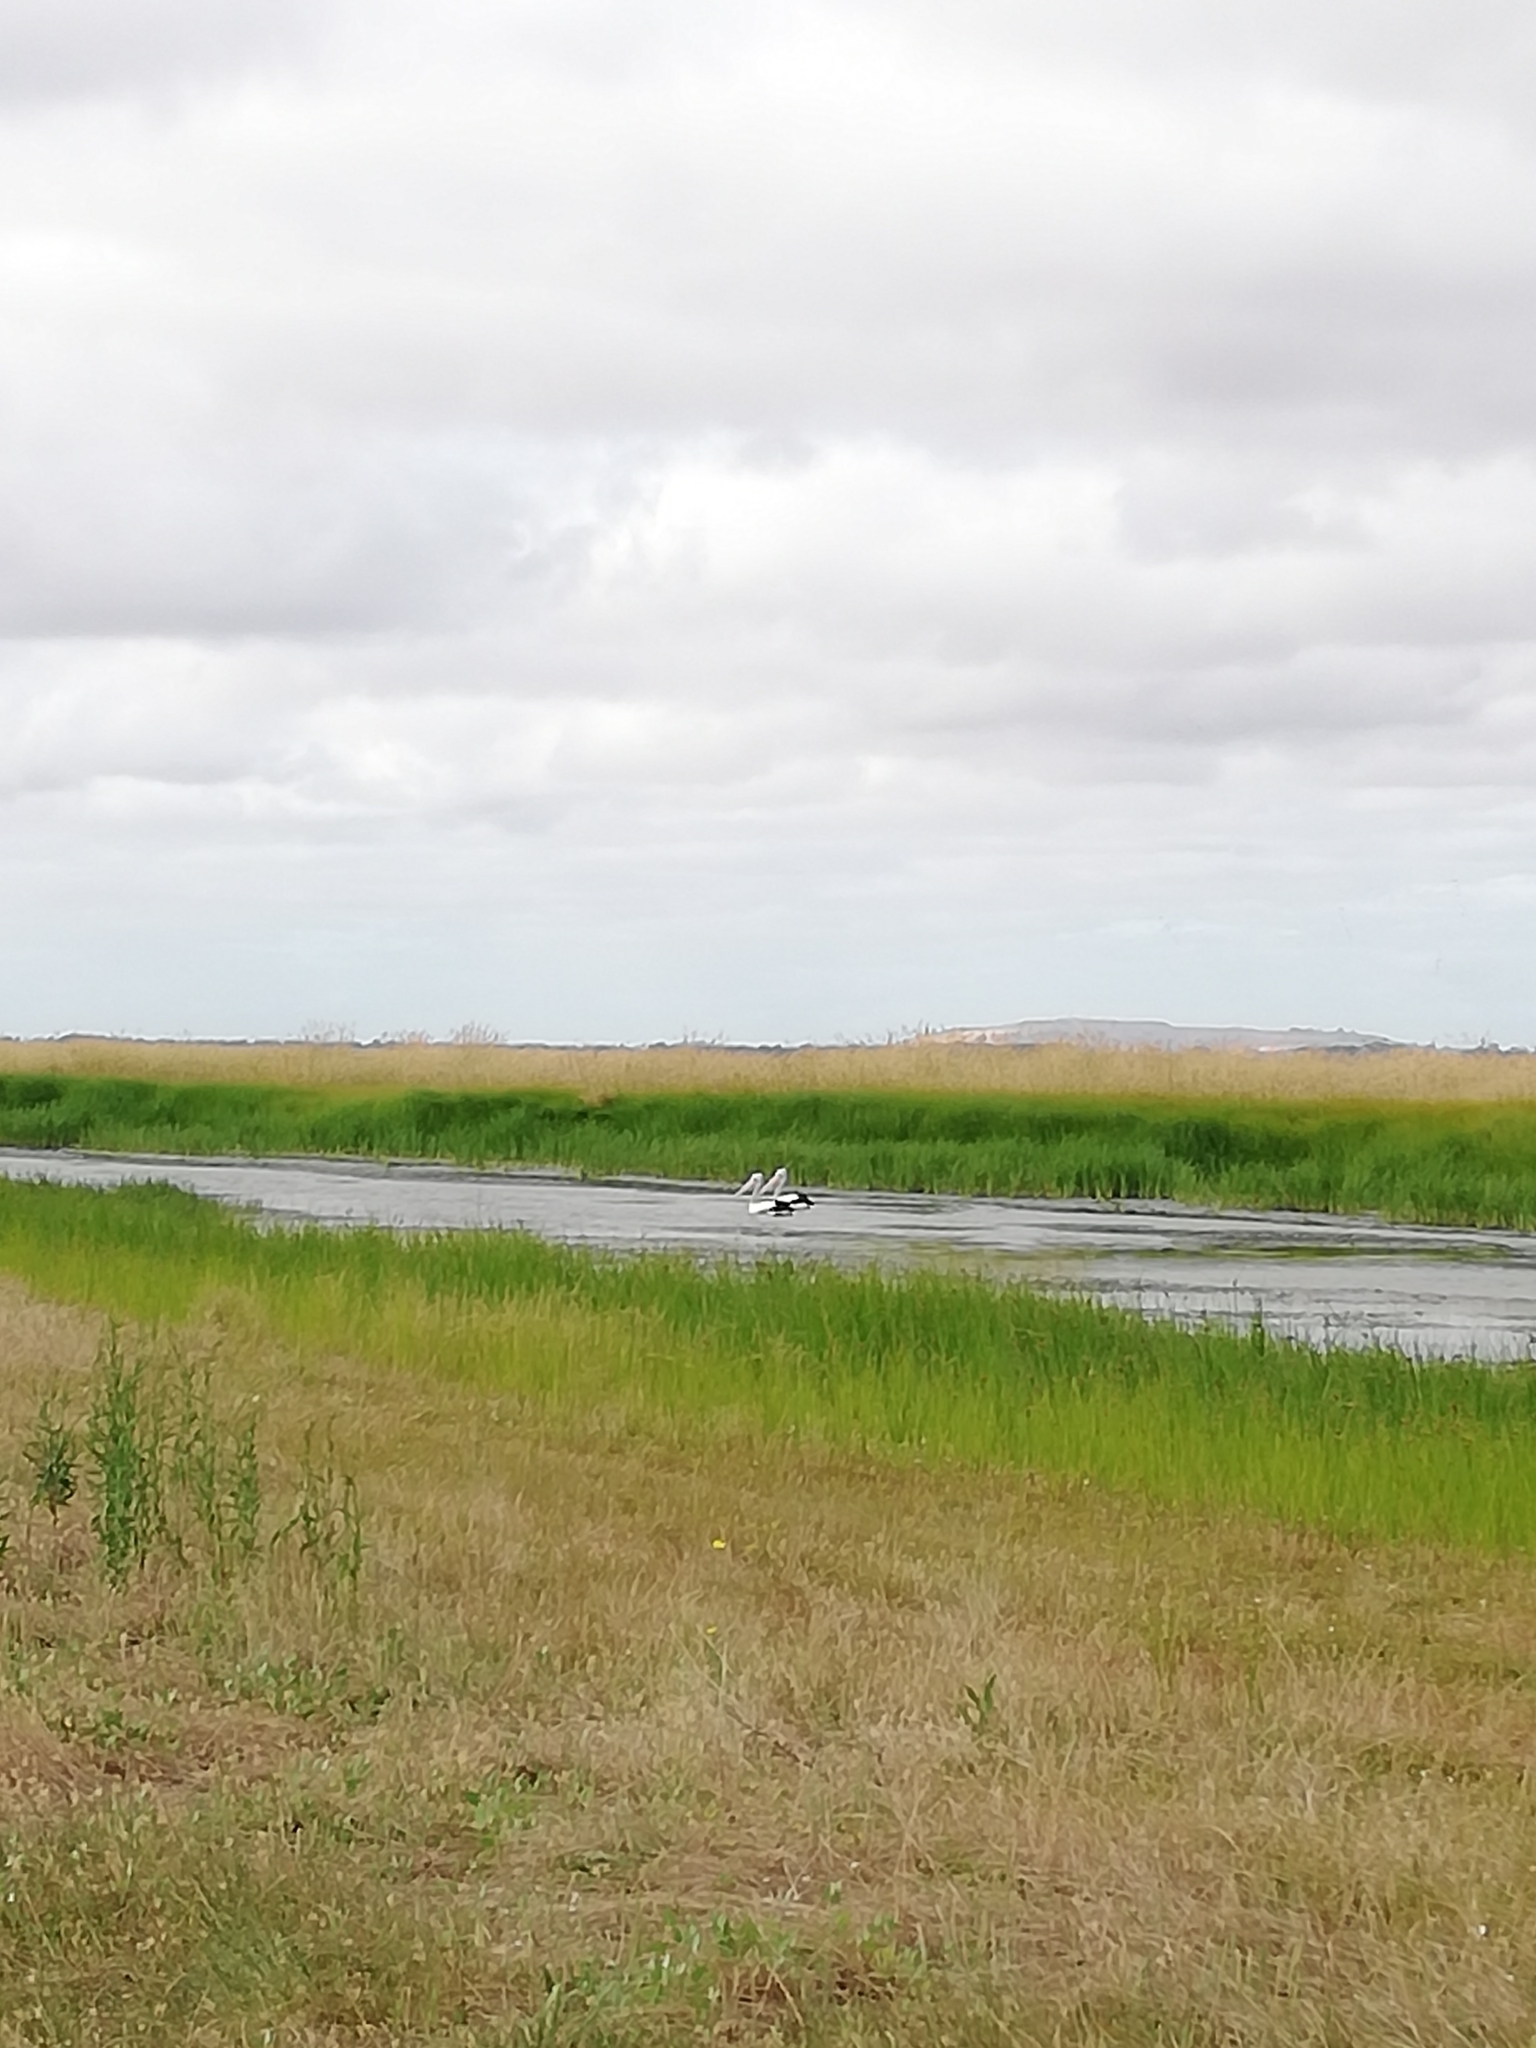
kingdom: Animalia
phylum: Chordata
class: Aves
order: Pelecaniformes
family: Pelecanidae
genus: Pelecanus
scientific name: Pelecanus conspicillatus
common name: Australian pelican
